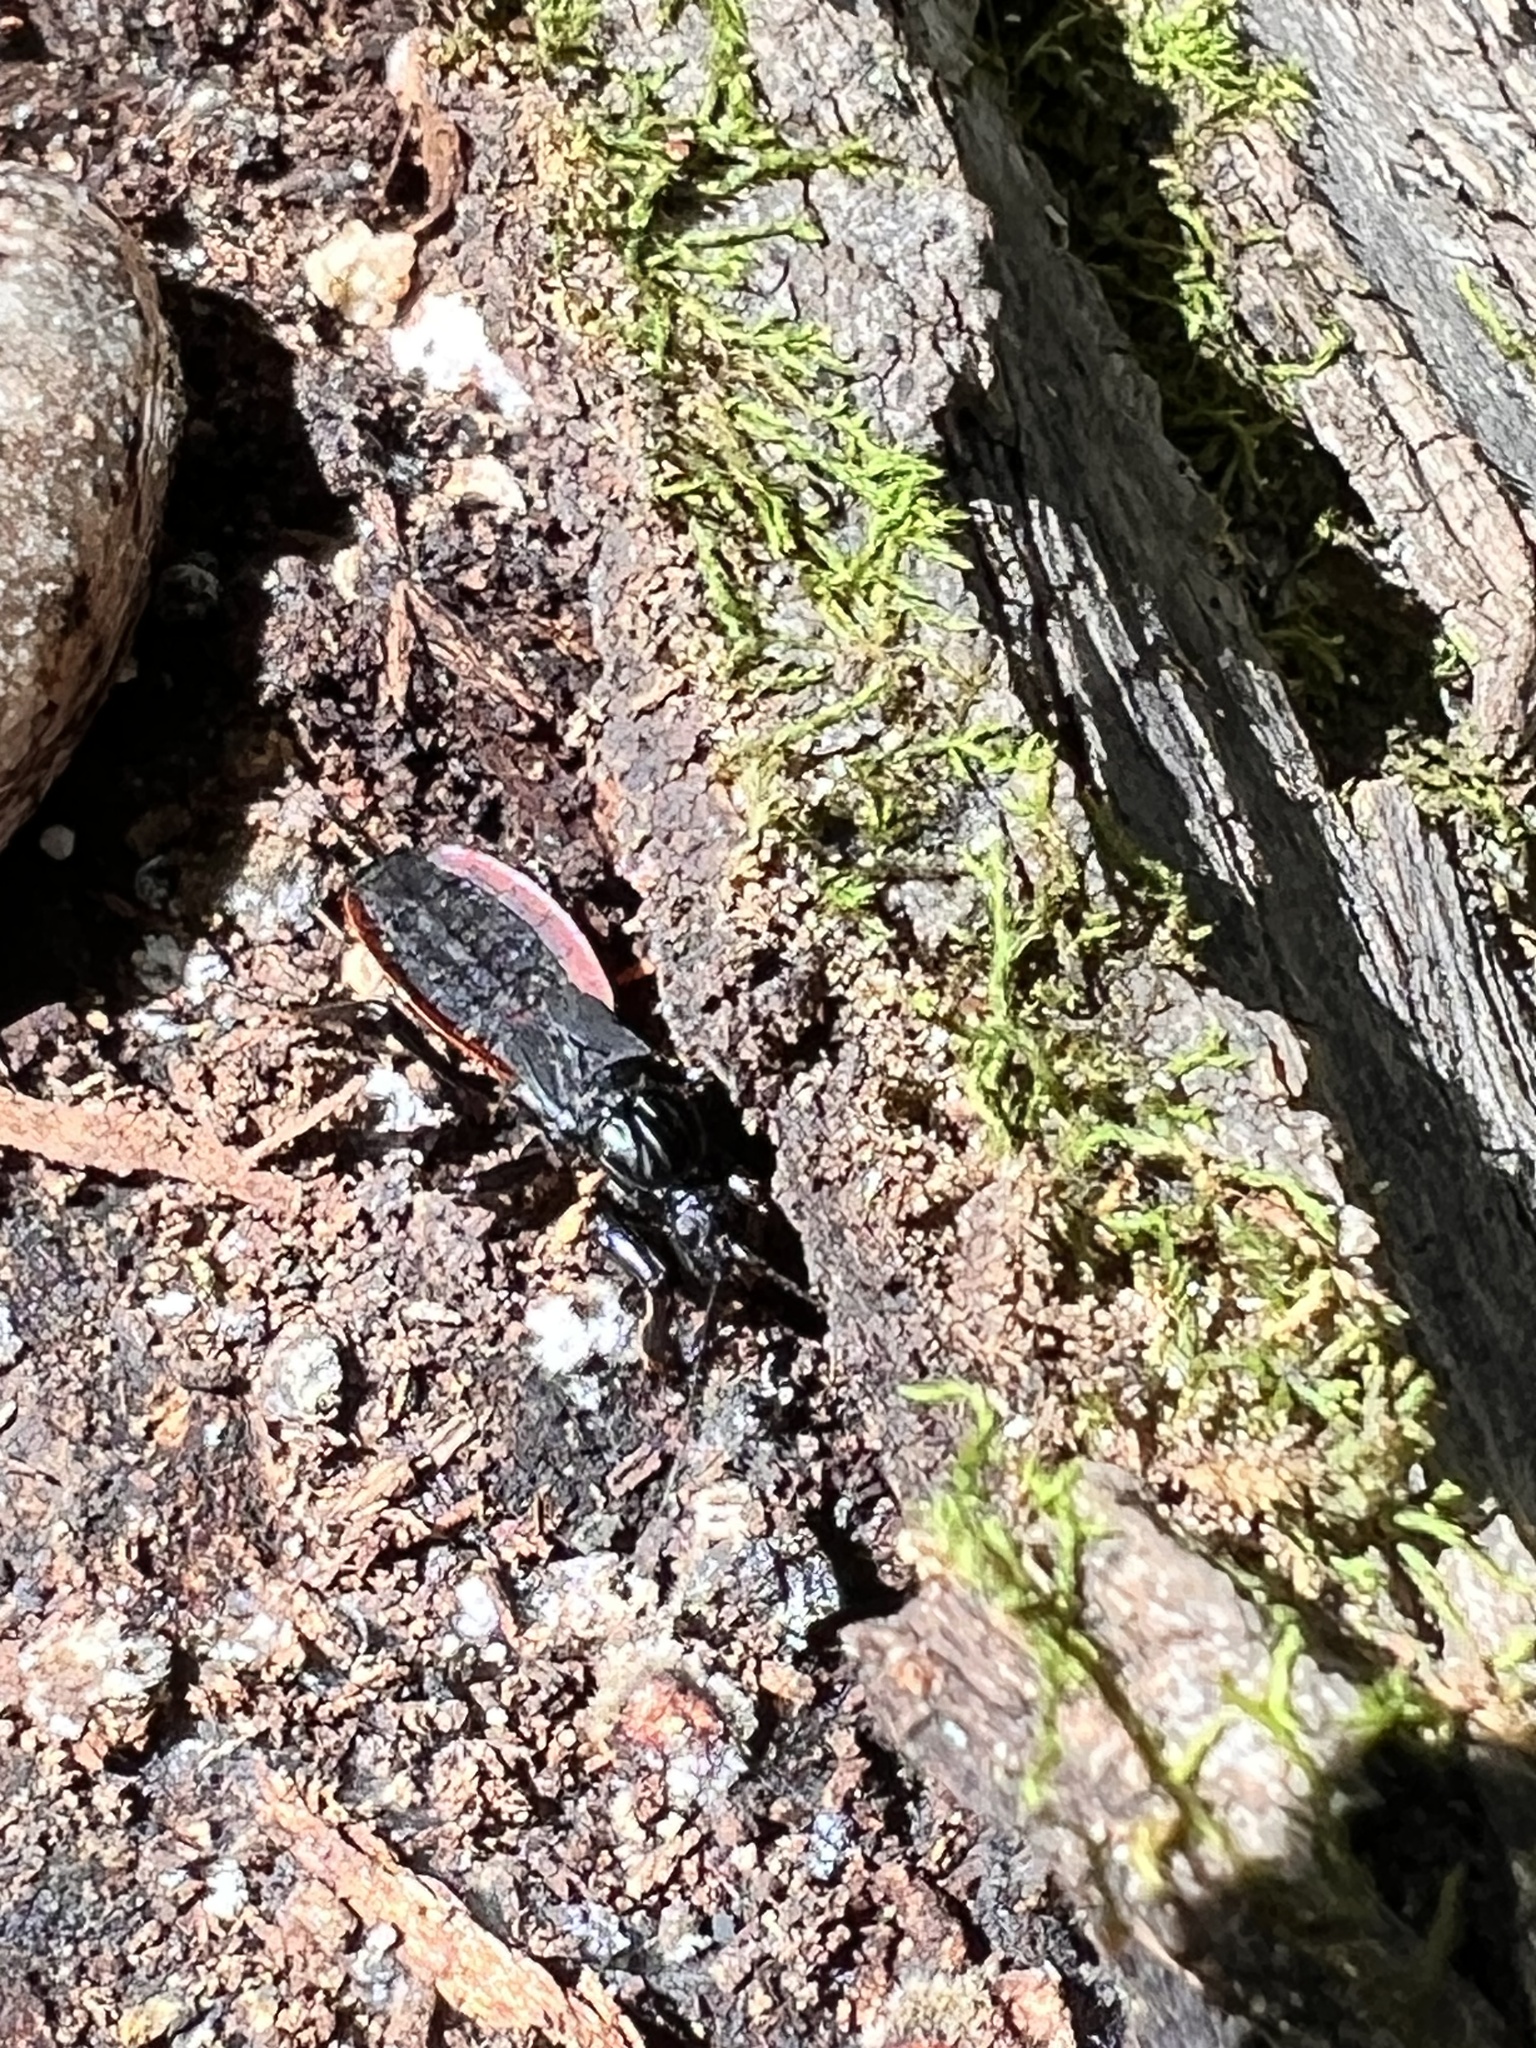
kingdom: Animalia
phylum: Arthropoda
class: Insecta
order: Hemiptera
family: Reduviidae
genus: Melanolestes
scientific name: Melanolestes picipes
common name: Assassin bug
